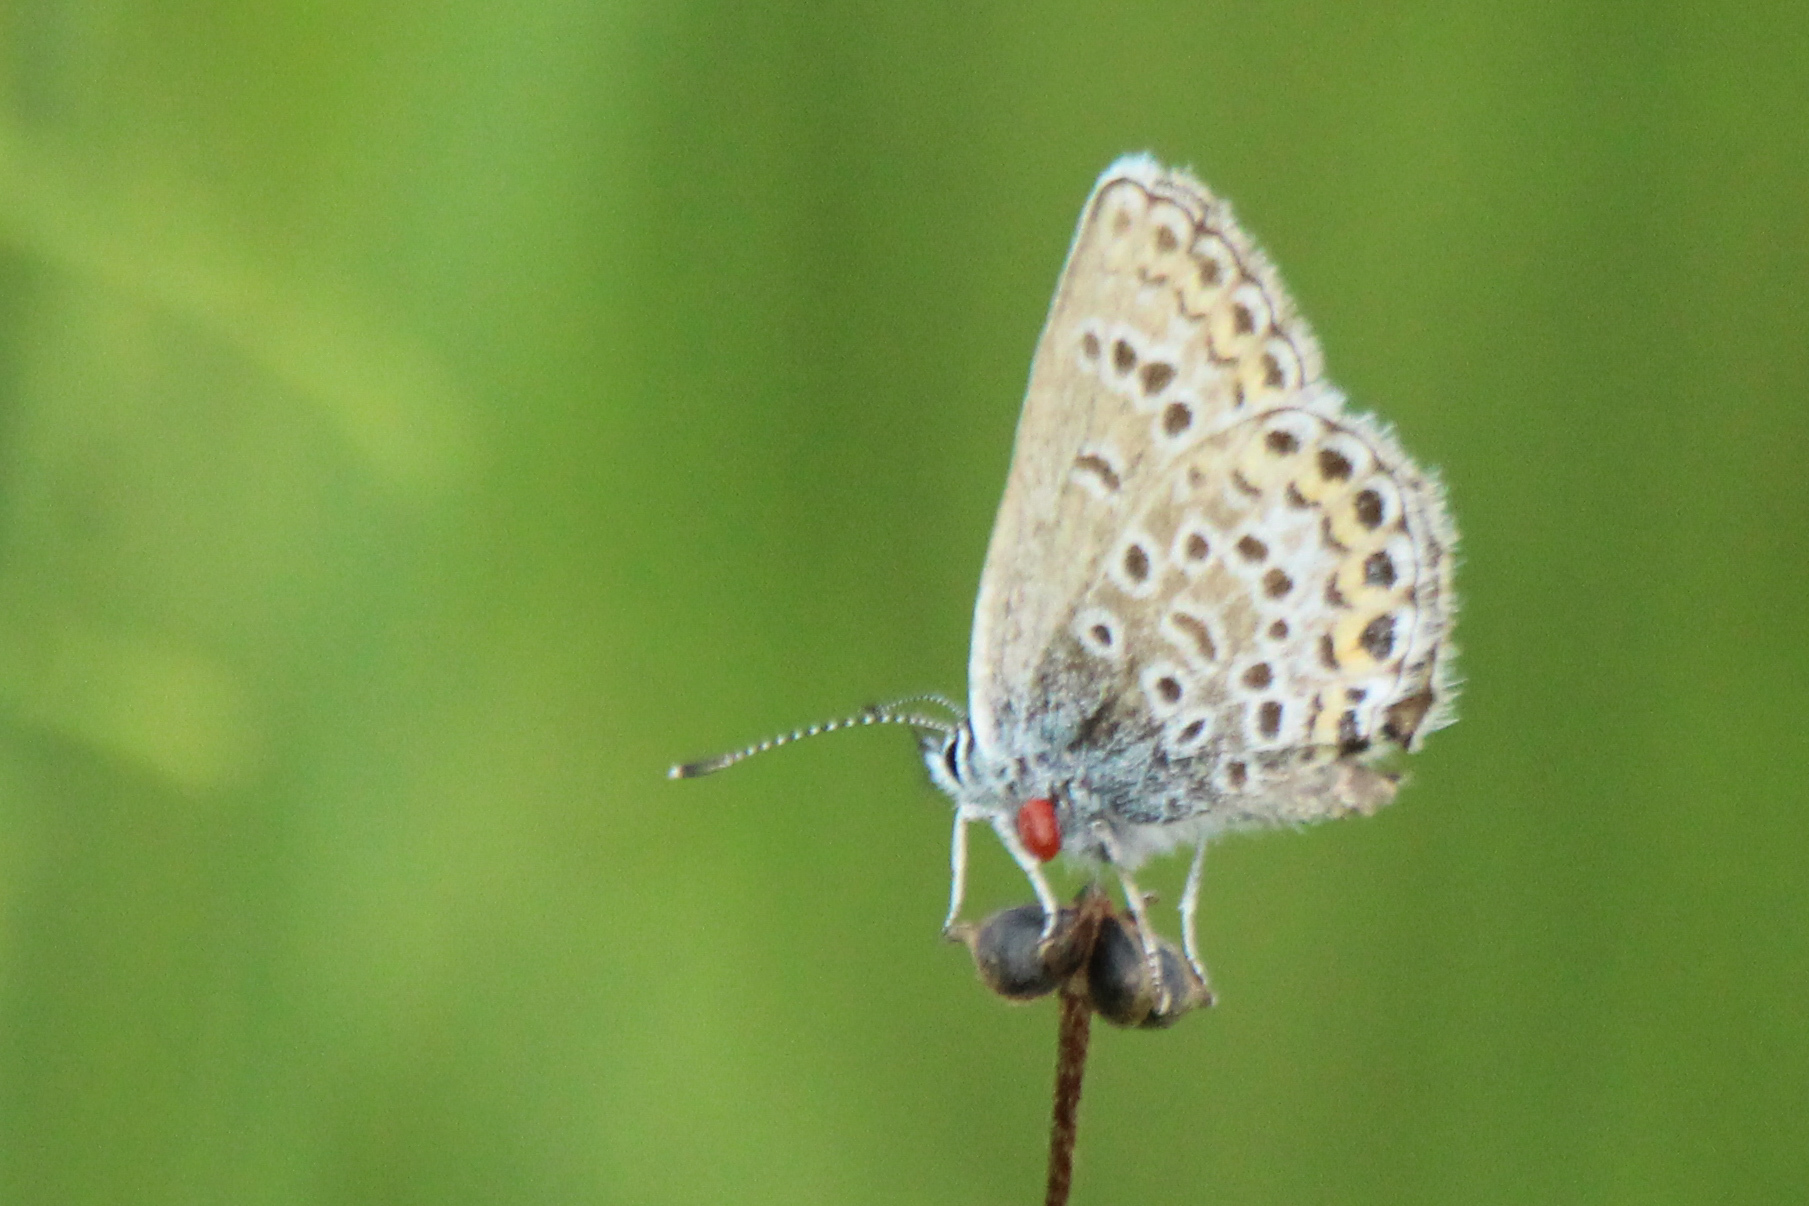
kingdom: Animalia
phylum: Arthropoda
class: Insecta
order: Lepidoptera
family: Lycaenidae
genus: Plebejus
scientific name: Plebejus argus
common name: Silver-studded blue
